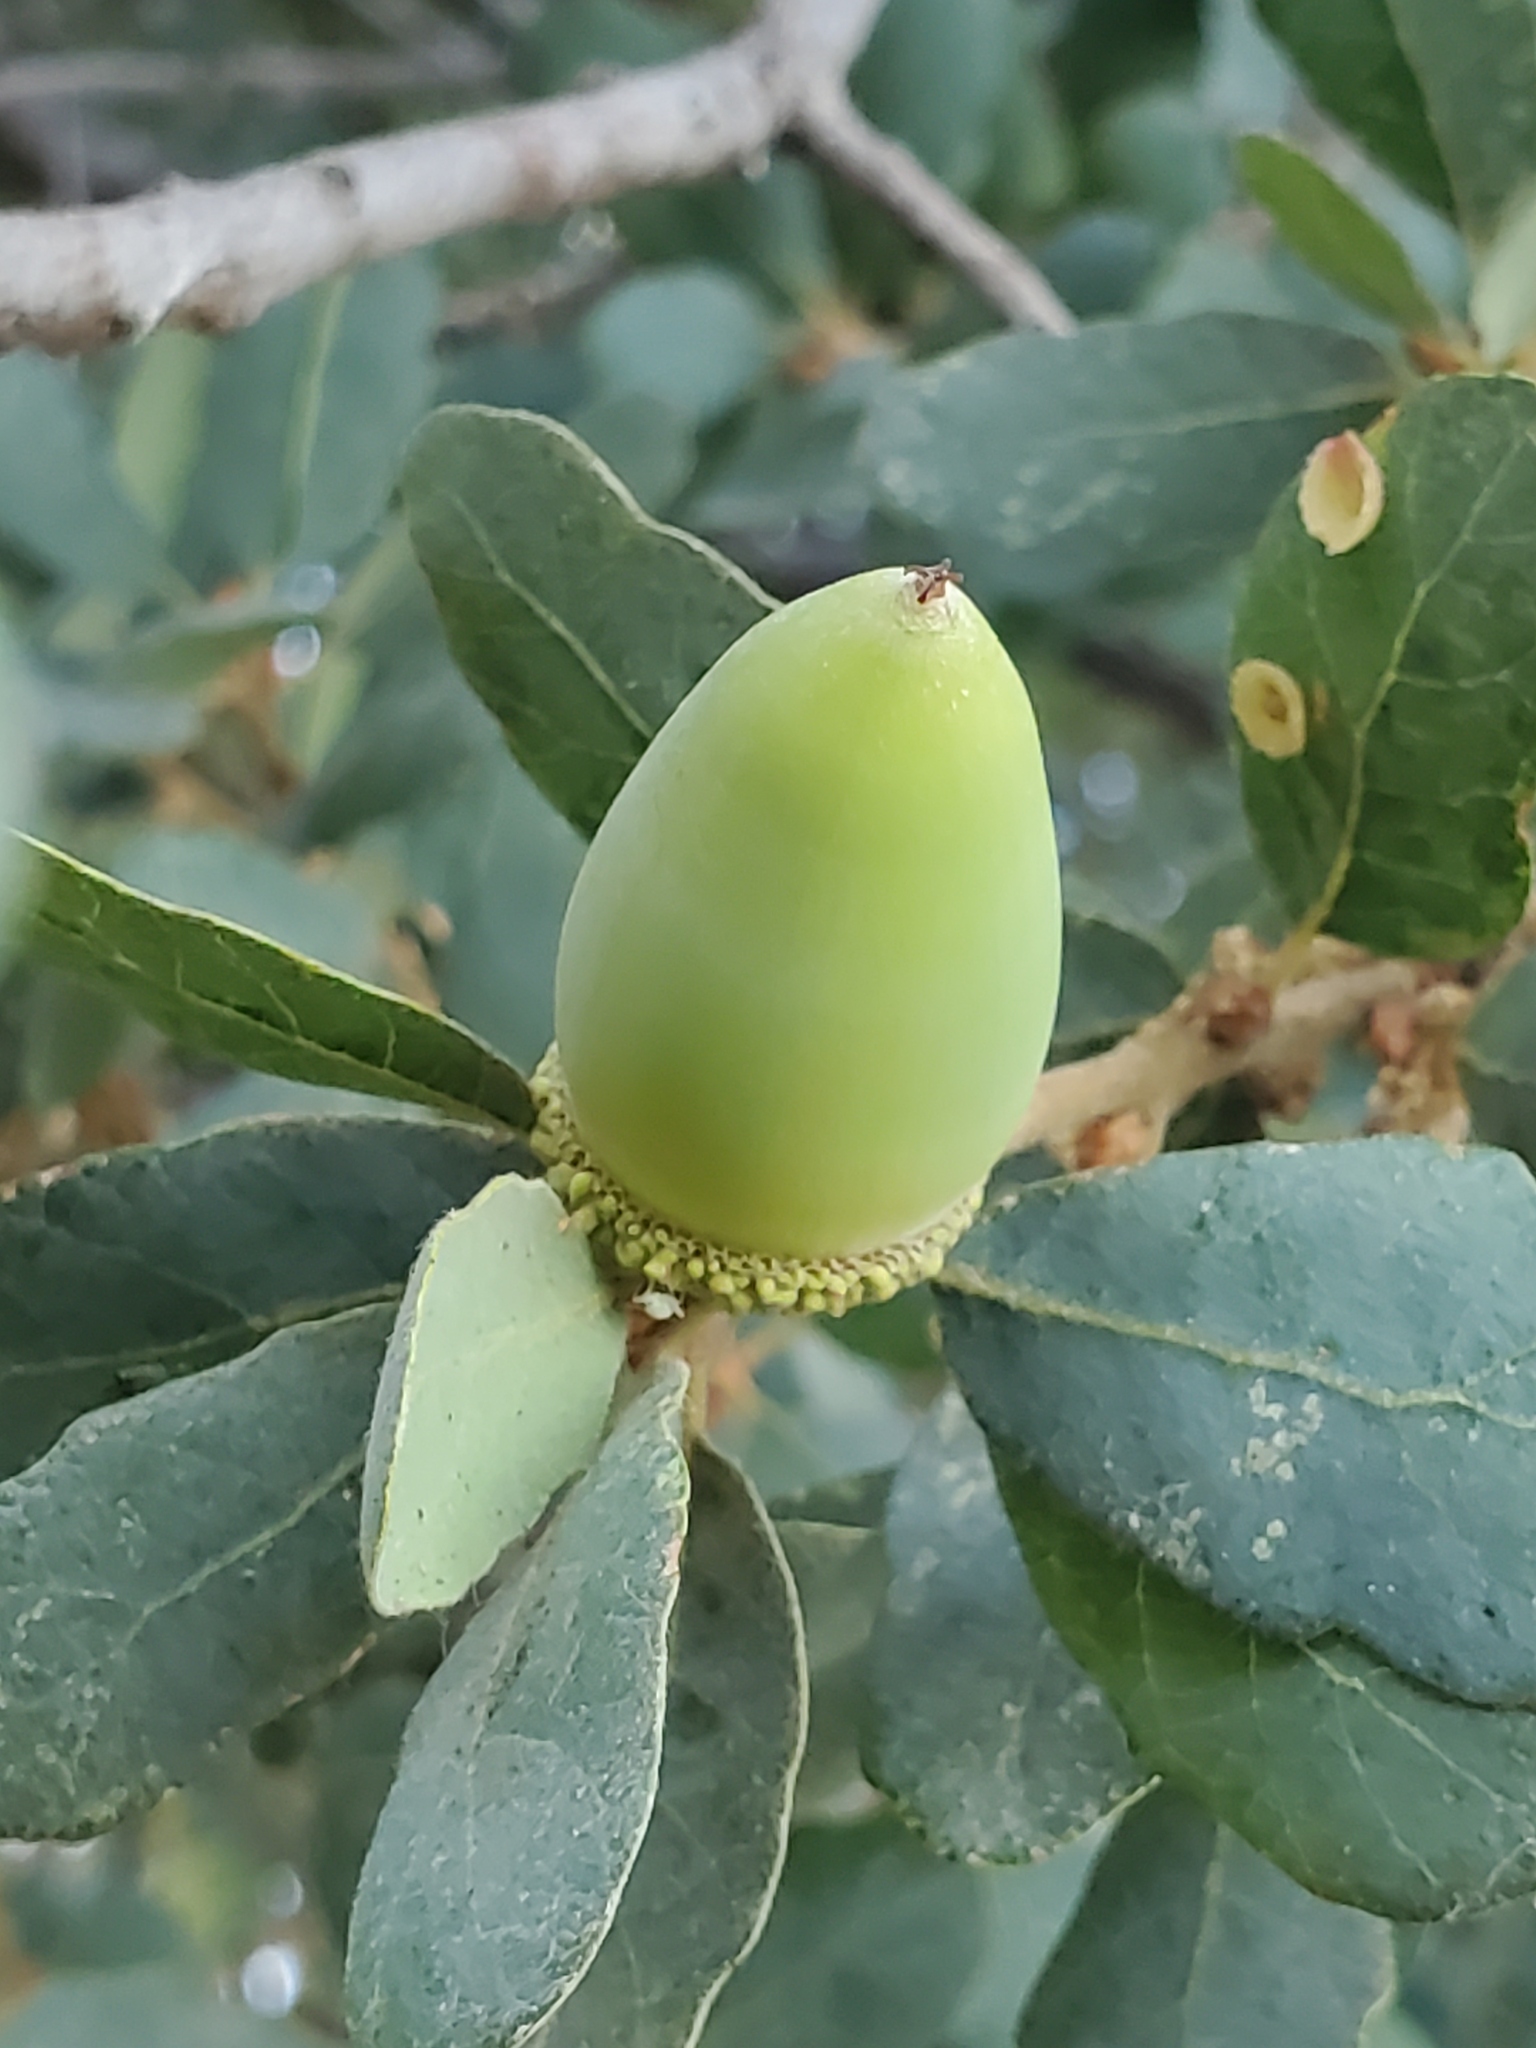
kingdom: Plantae
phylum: Tracheophyta
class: Magnoliopsida
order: Fagales
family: Fagaceae
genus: Quercus
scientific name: Quercus douglasii
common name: Blue oak
